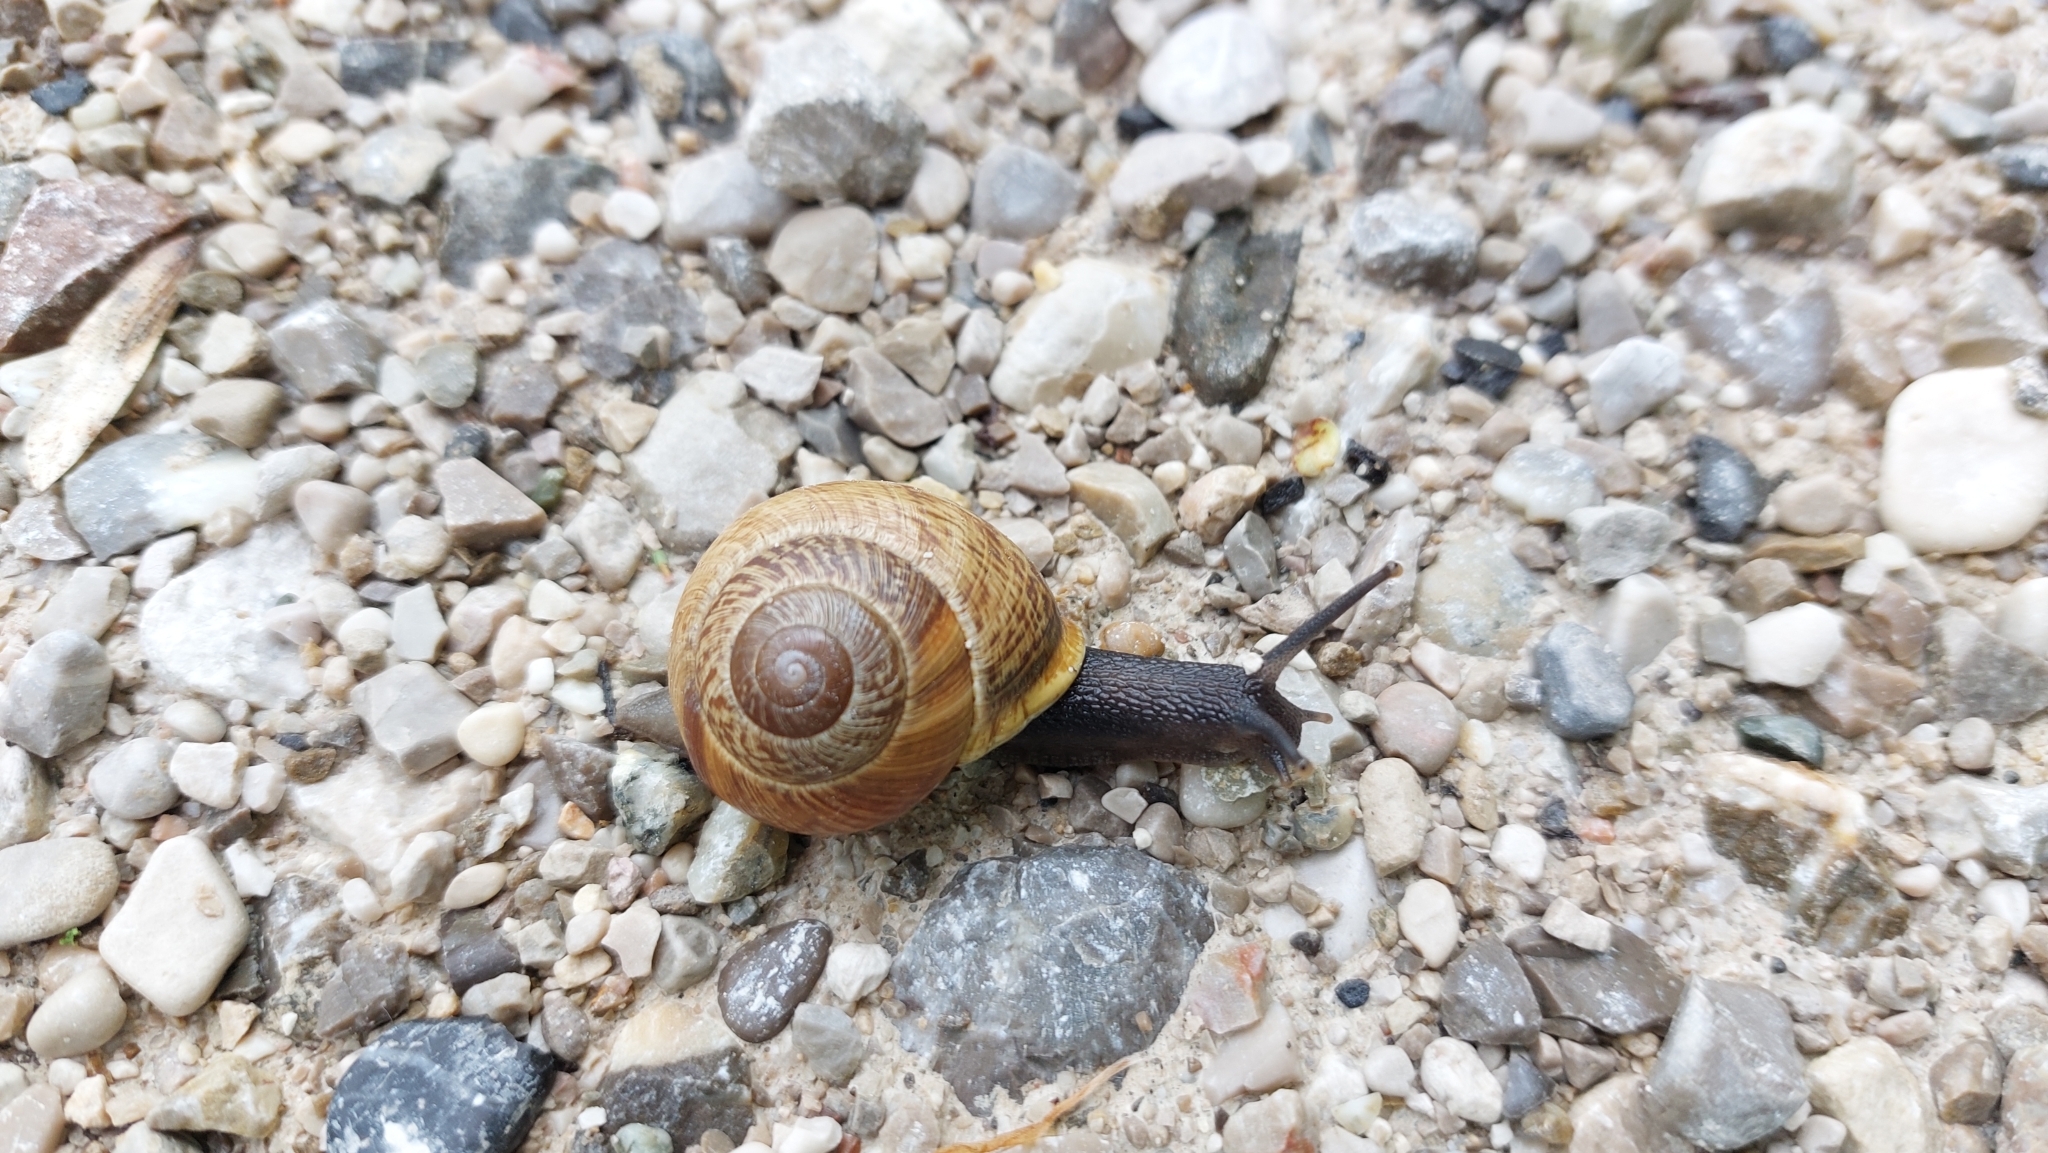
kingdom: Animalia
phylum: Mollusca
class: Gastropoda
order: Stylommatophora
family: Helicidae
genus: Arianta
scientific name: Arianta arbustorum
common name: Copse snail
